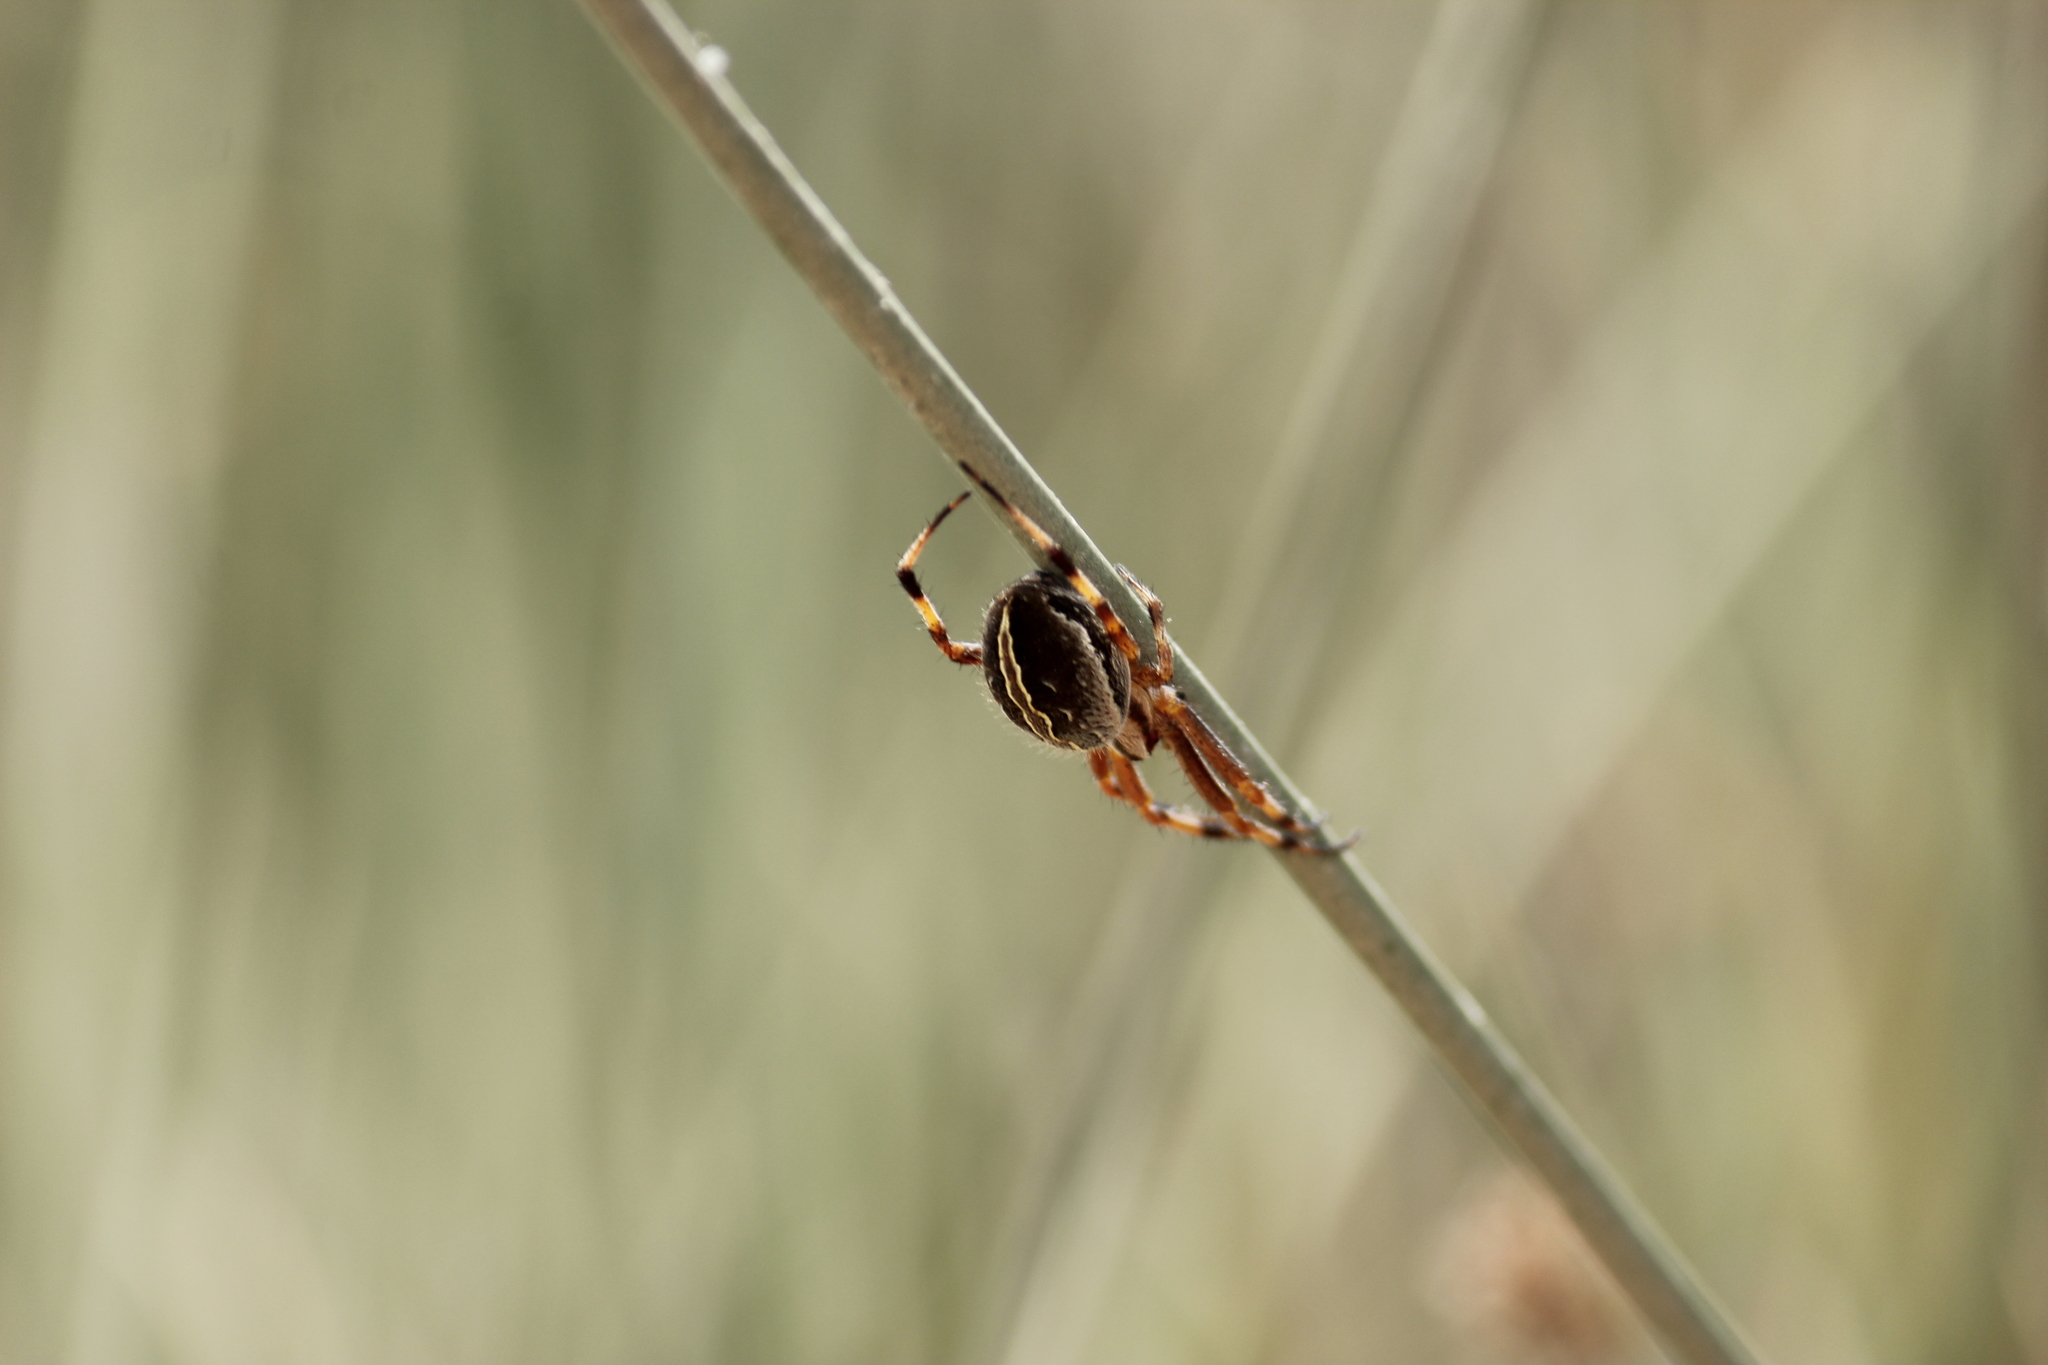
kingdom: Animalia
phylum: Arthropoda
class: Arachnida
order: Araneae
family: Araneidae
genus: Neoscona
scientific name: Neoscona moreli
